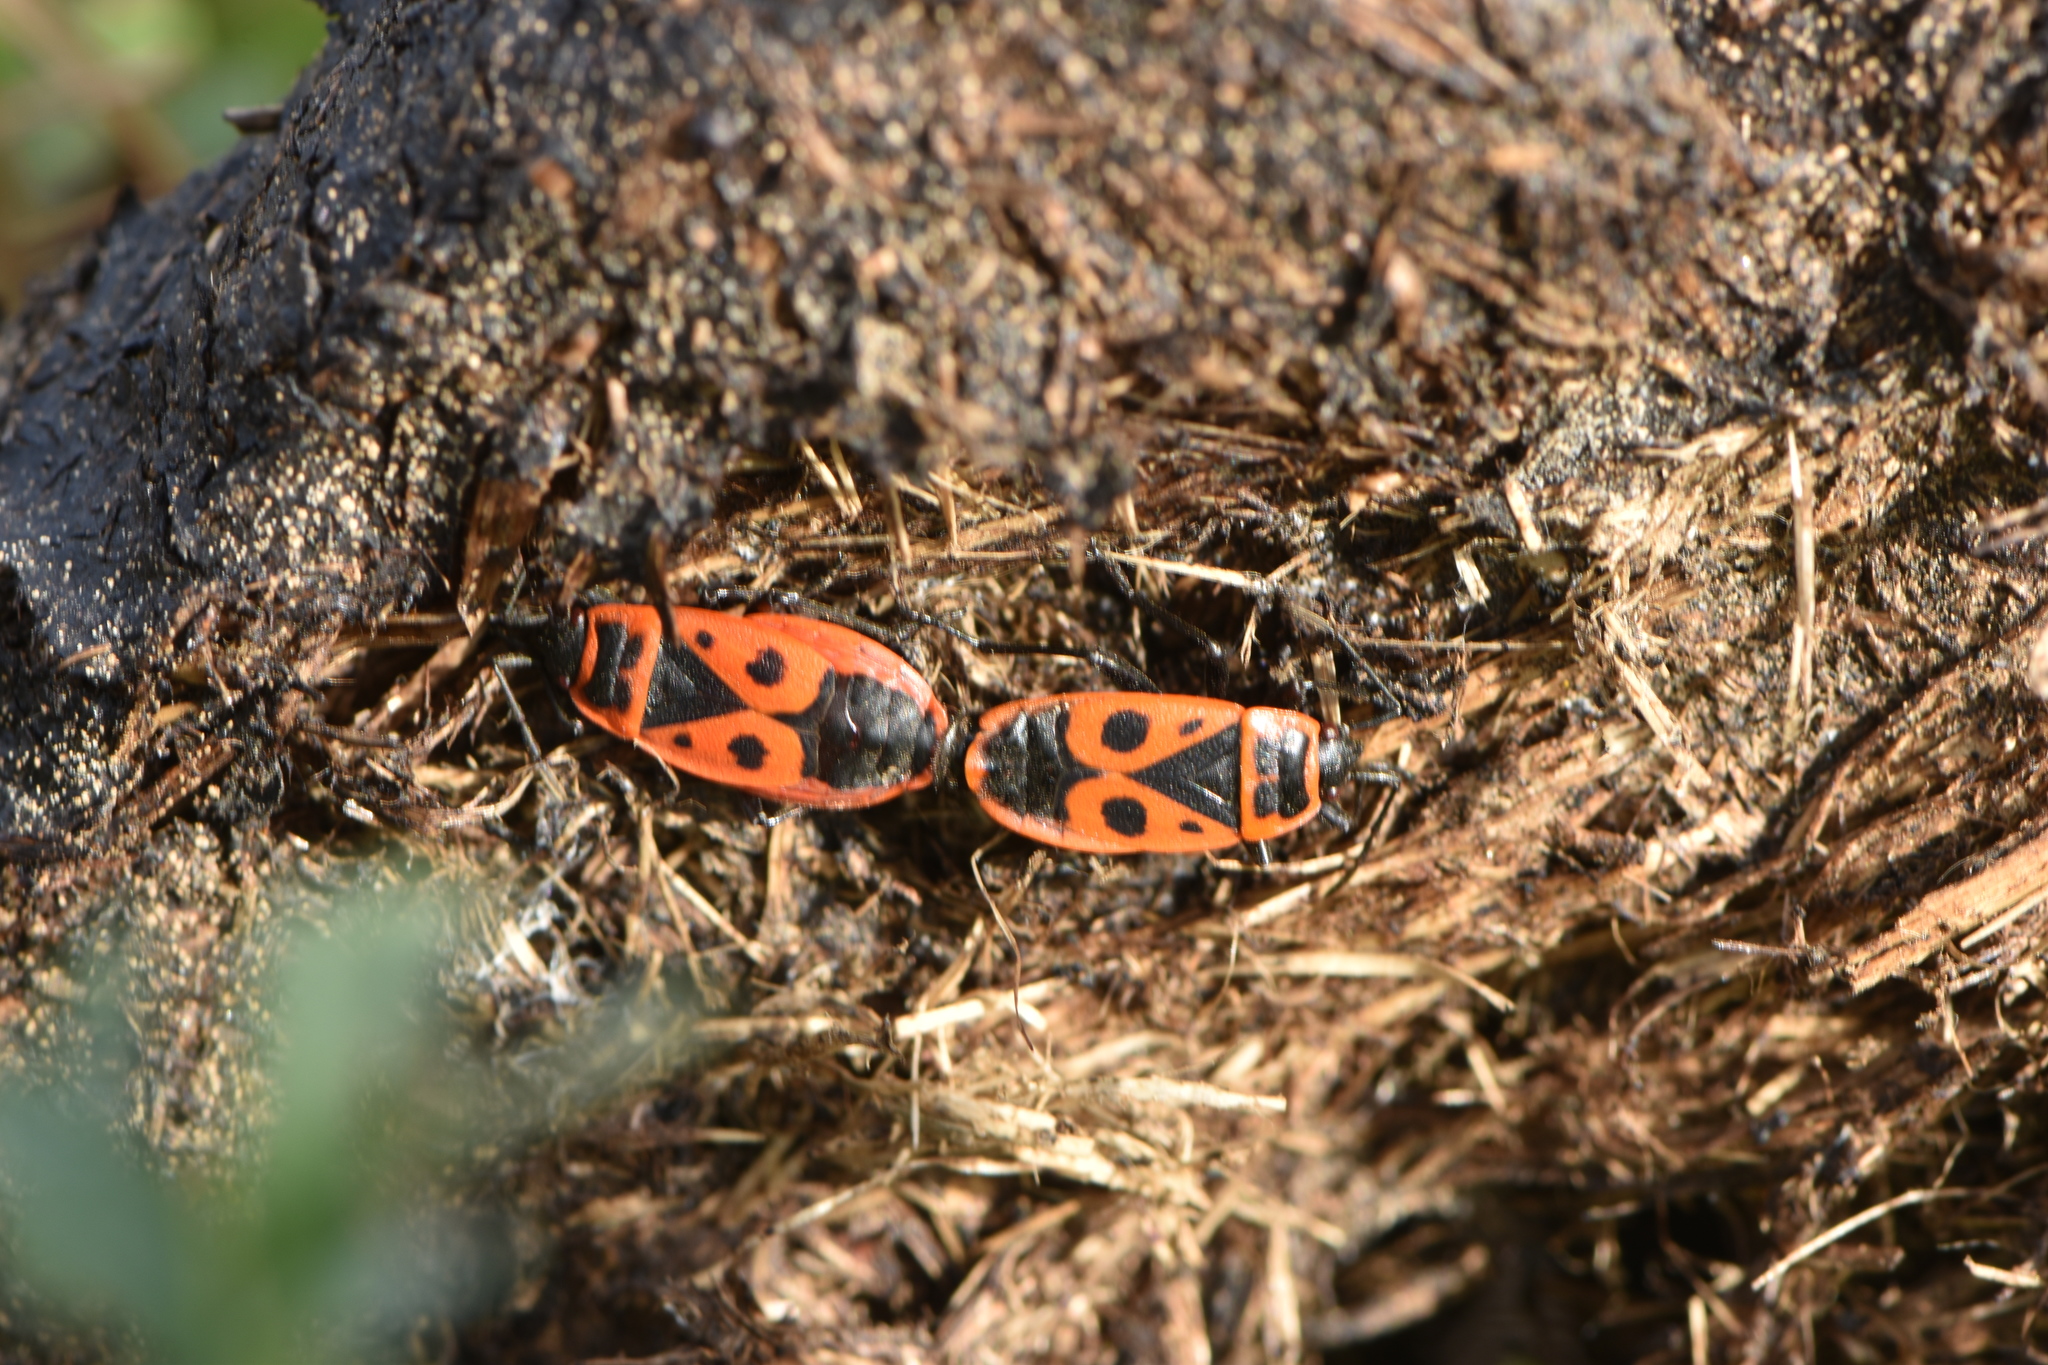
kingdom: Animalia
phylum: Arthropoda
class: Insecta
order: Hemiptera
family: Pyrrhocoridae
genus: Pyrrhocoris
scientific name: Pyrrhocoris apterus
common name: Firebug
